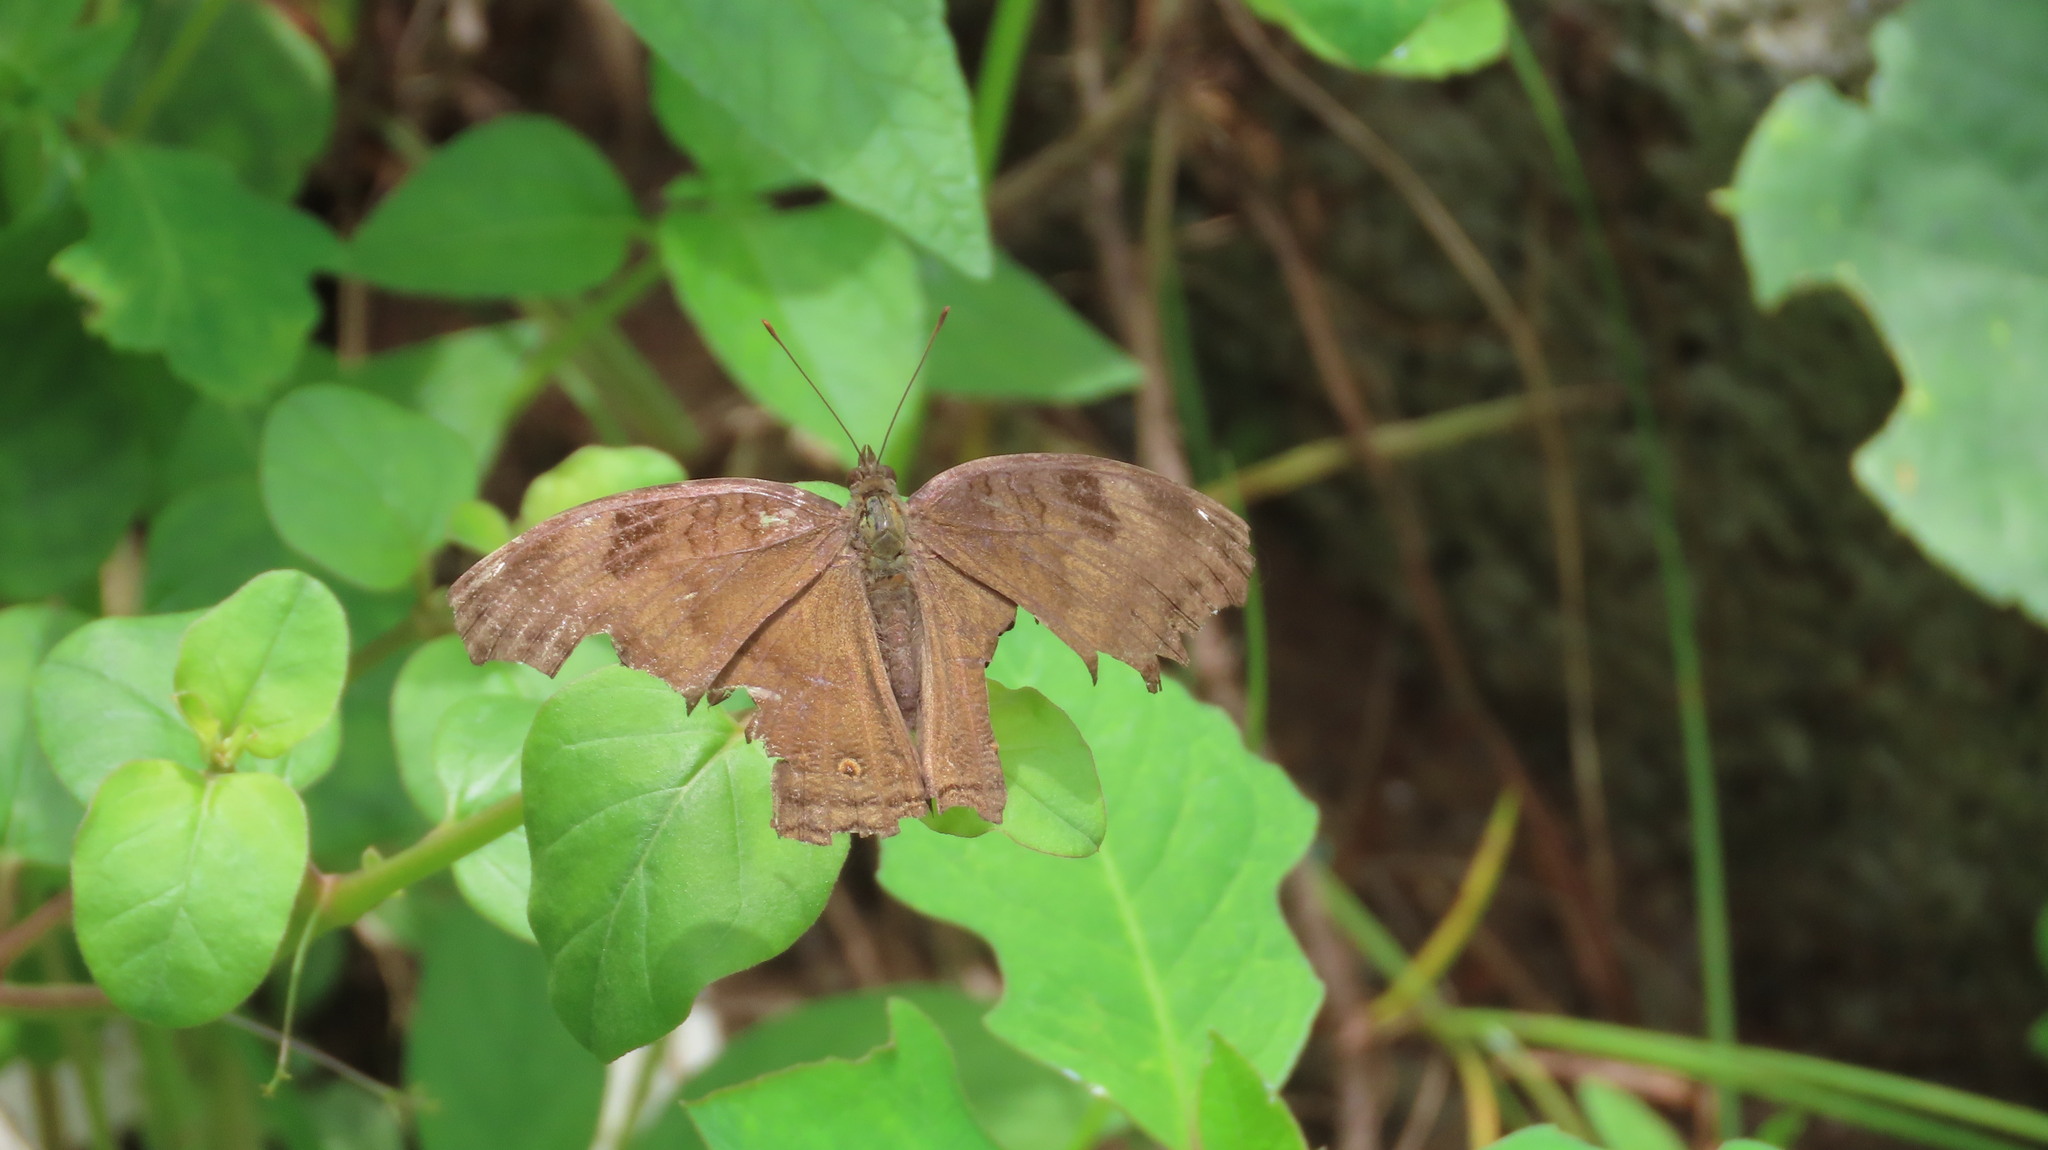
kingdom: Animalia
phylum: Arthropoda
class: Insecta
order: Lepidoptera
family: Nymphalidae
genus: Junonia
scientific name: Junonia iphita
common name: Chocolate pansy
